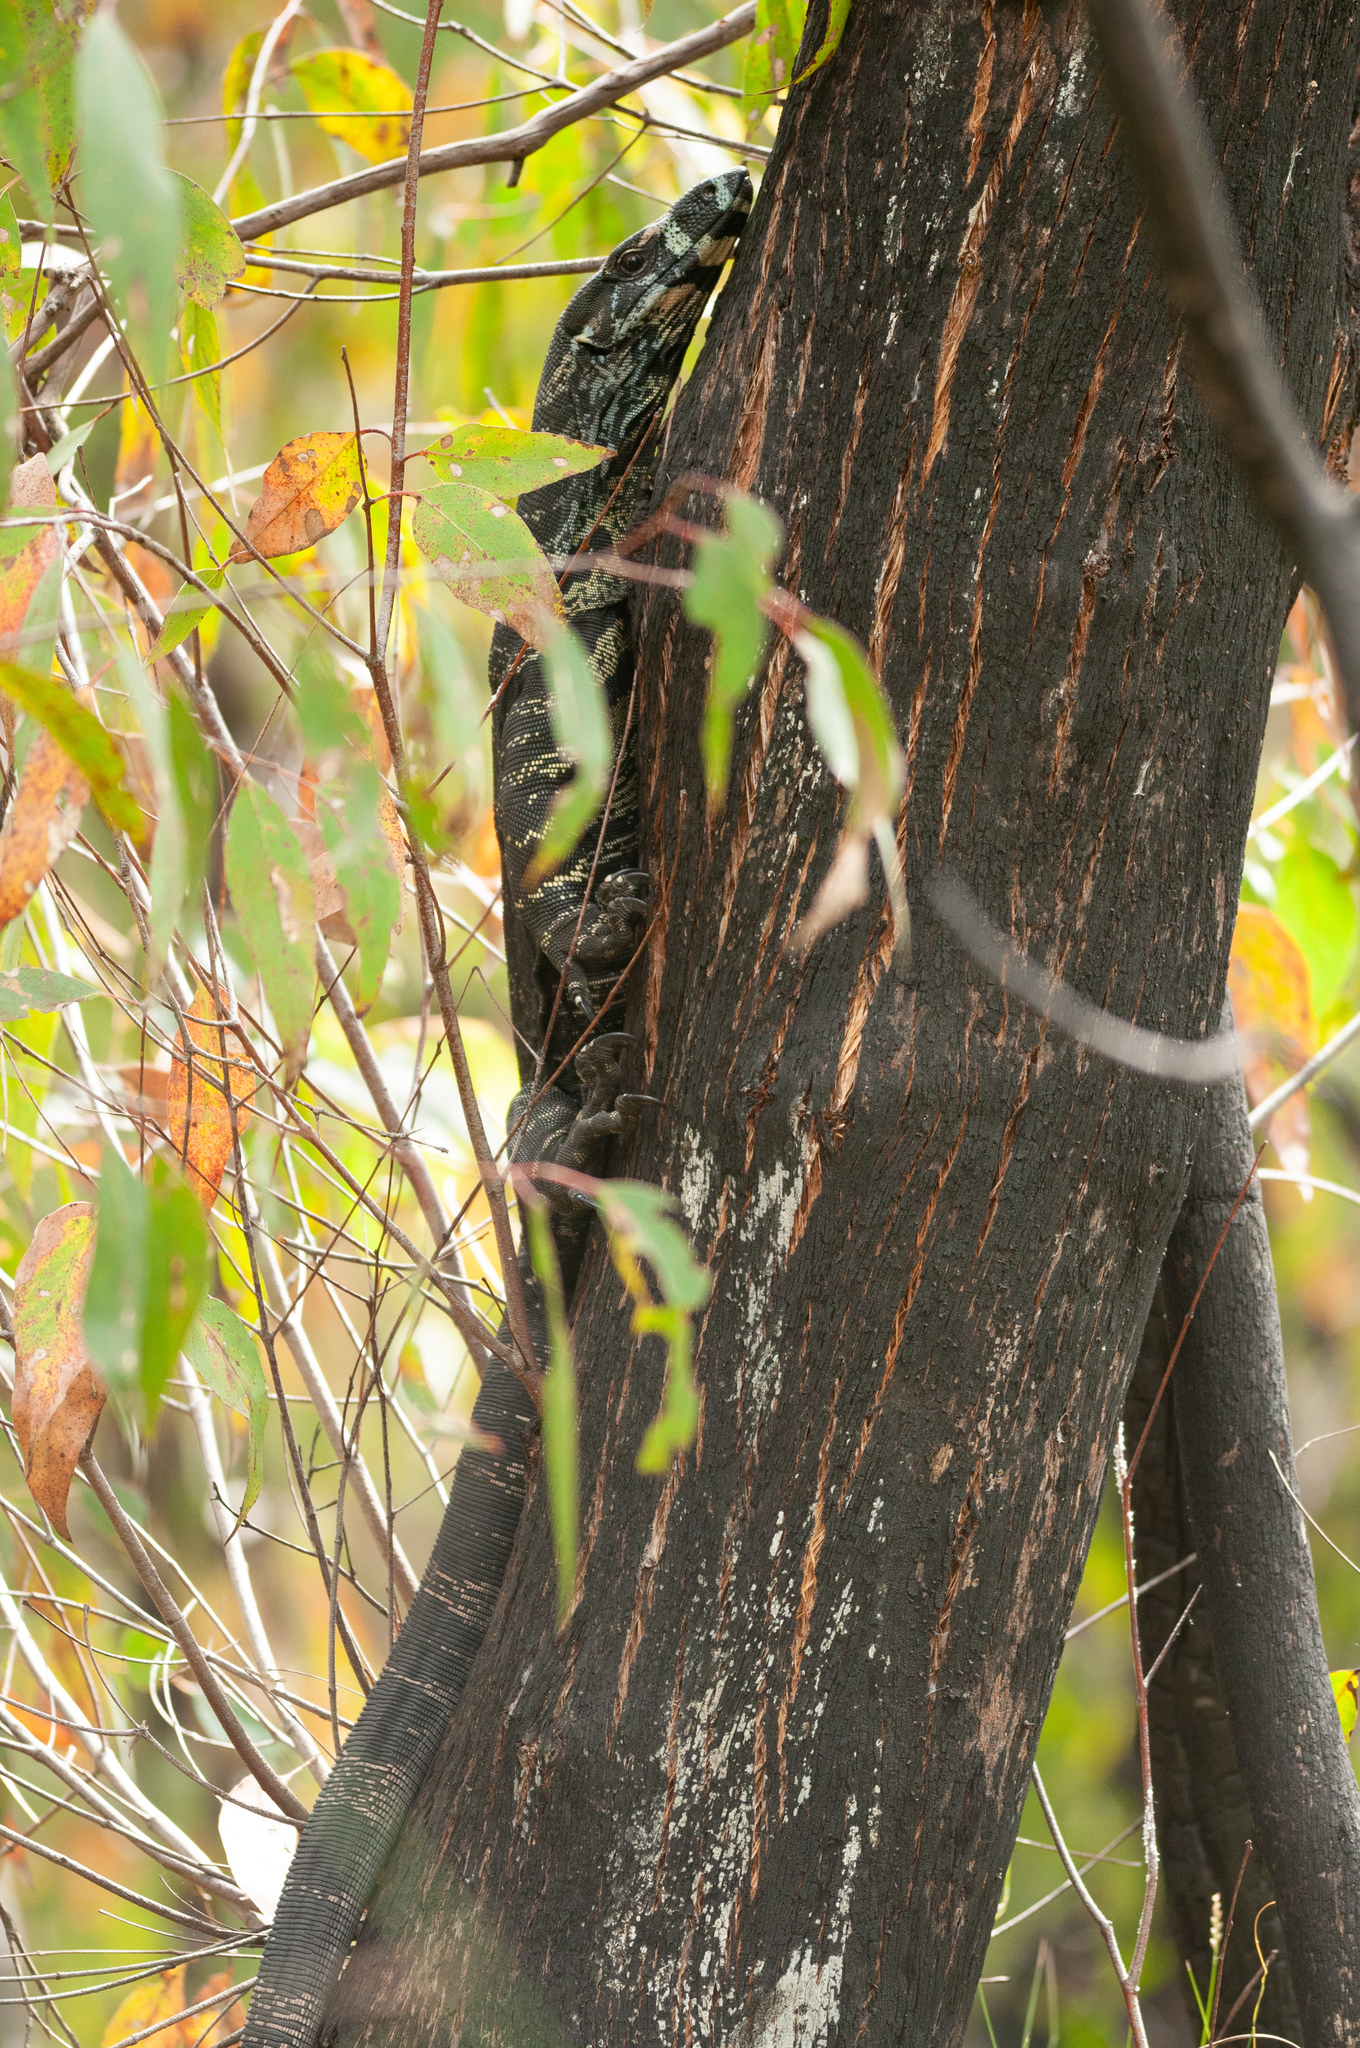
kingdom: Animalia
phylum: Chordata
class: Squamata
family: Varanidae
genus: Varanus
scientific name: Varanus varius
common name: Lace monitor
